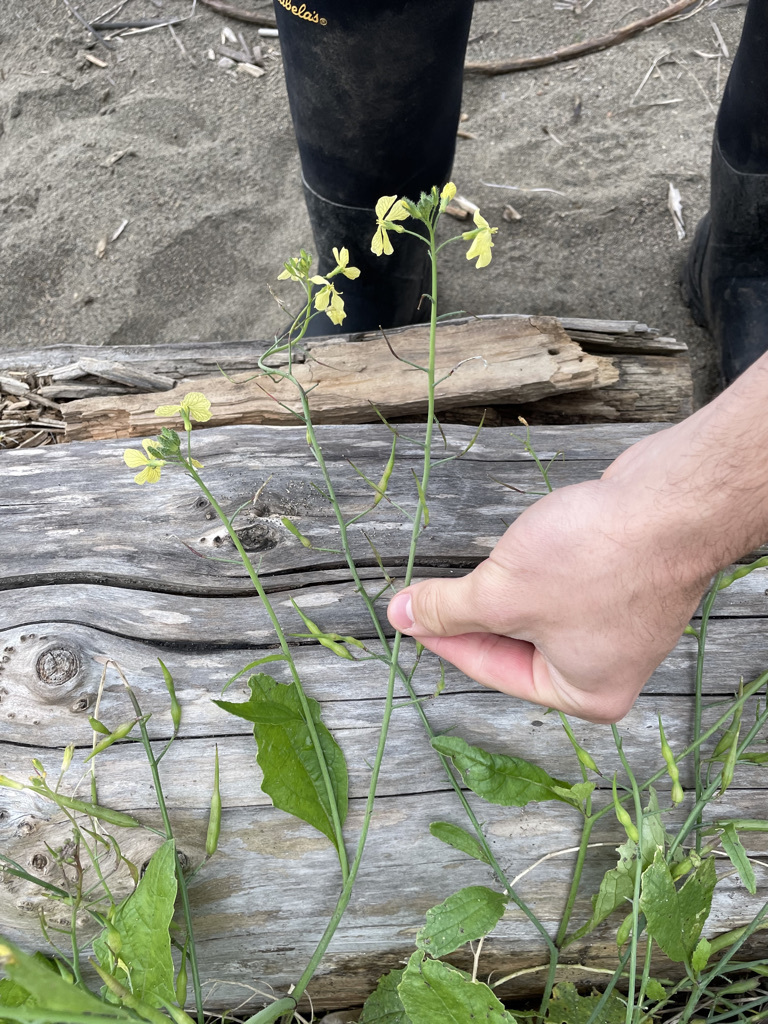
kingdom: Plantae
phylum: Tracheophyta
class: Magnoliopsida
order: Brassicales
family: Brassicaceae
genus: Raphanus
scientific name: Raphanus raphanistrum
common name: Wild radish
